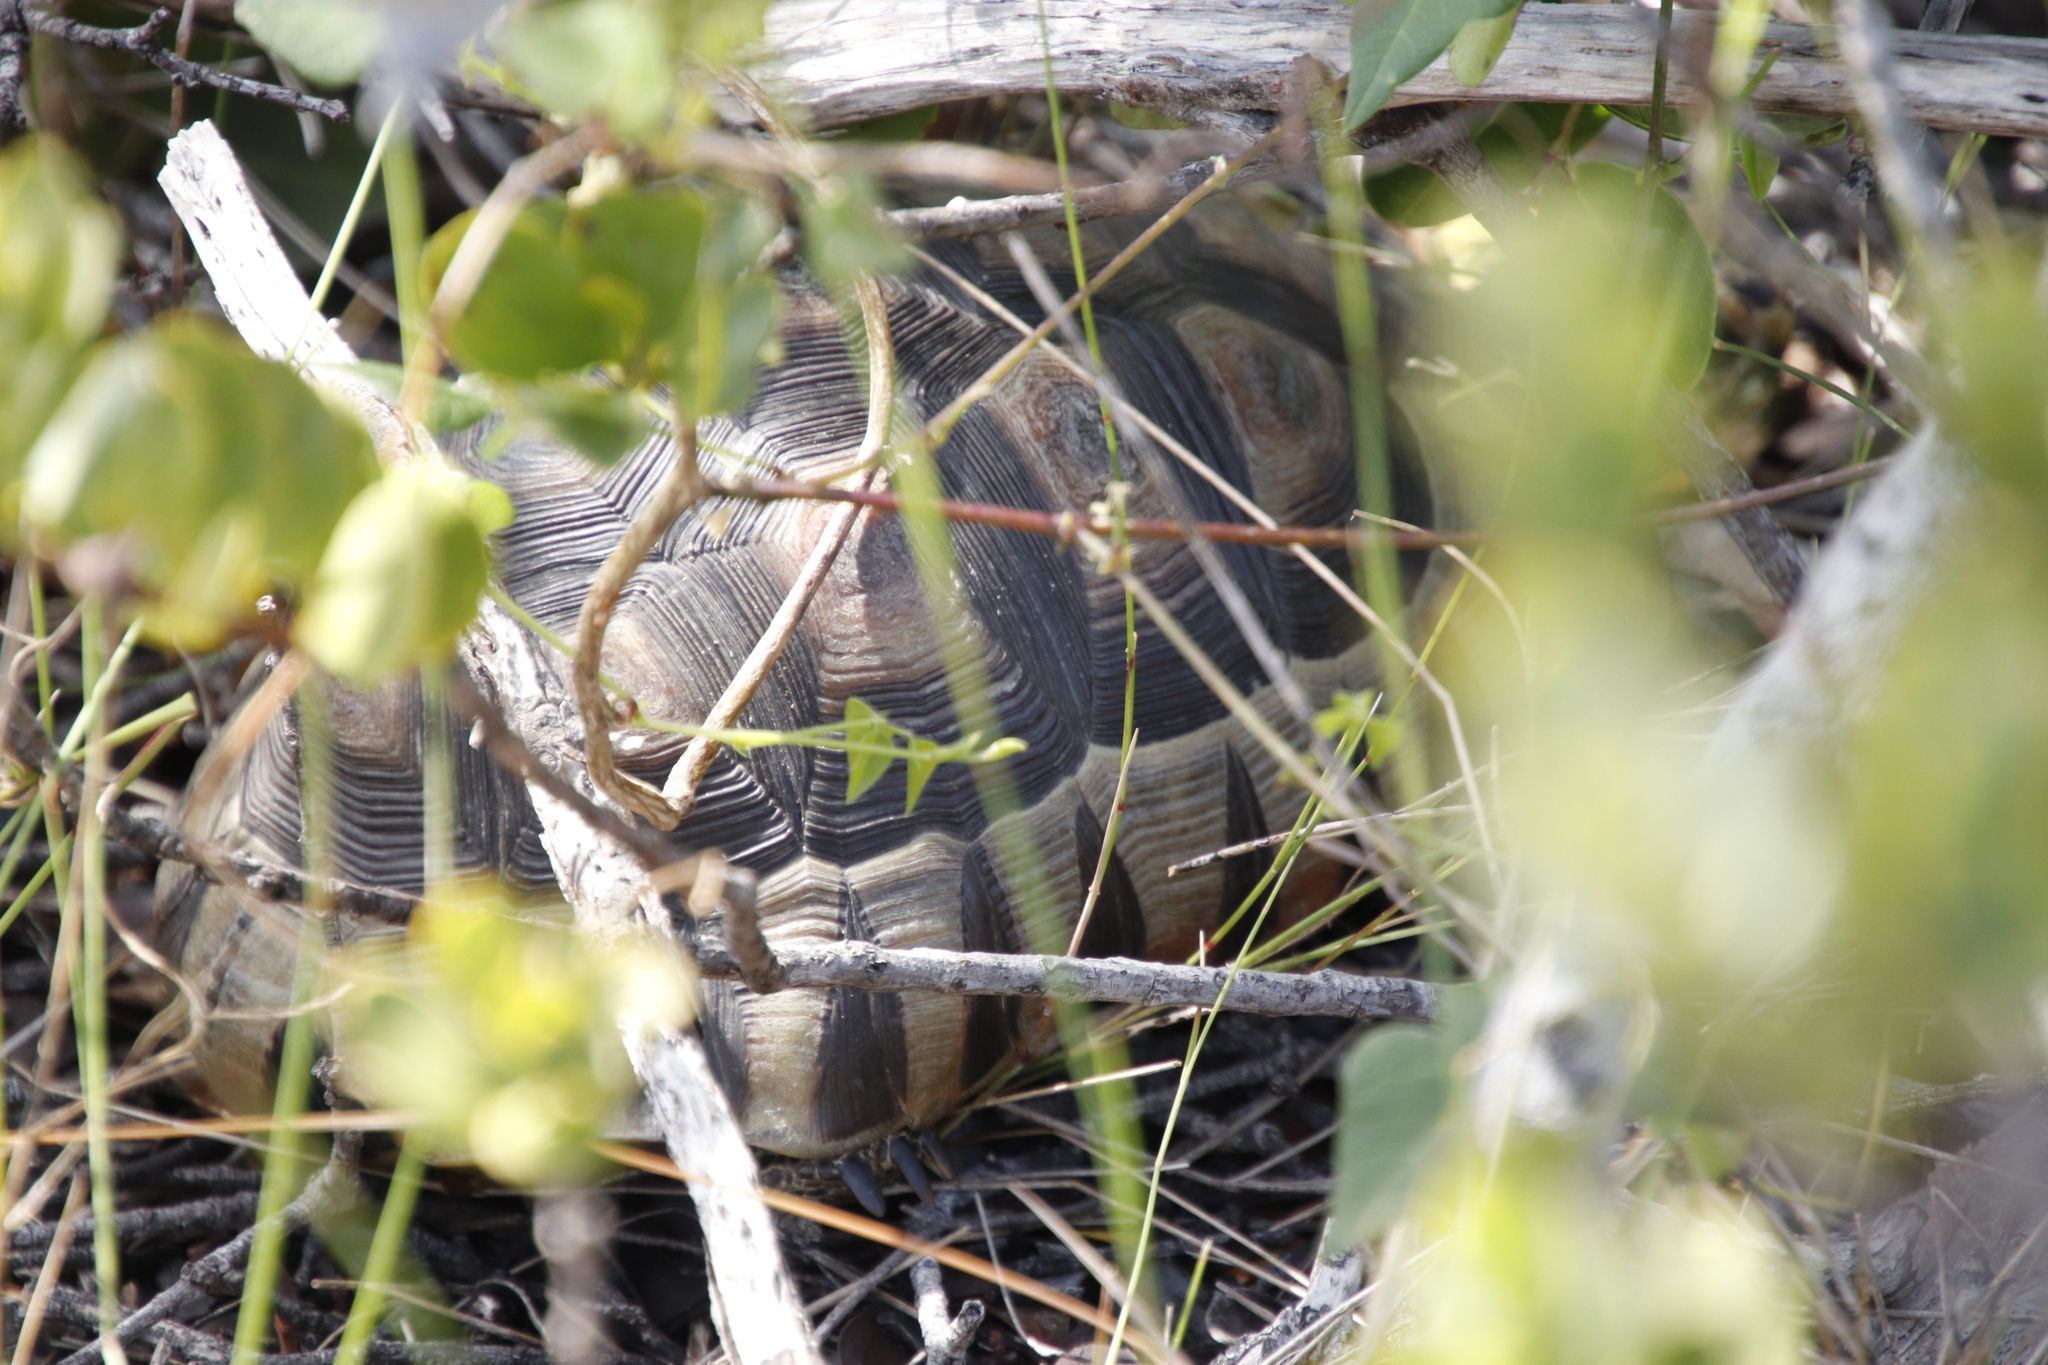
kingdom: Animalia
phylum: Chordata
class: Testudines
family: Testudinidae
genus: Chersina
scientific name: Chersina angulata
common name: South african bowsprit tortoise
